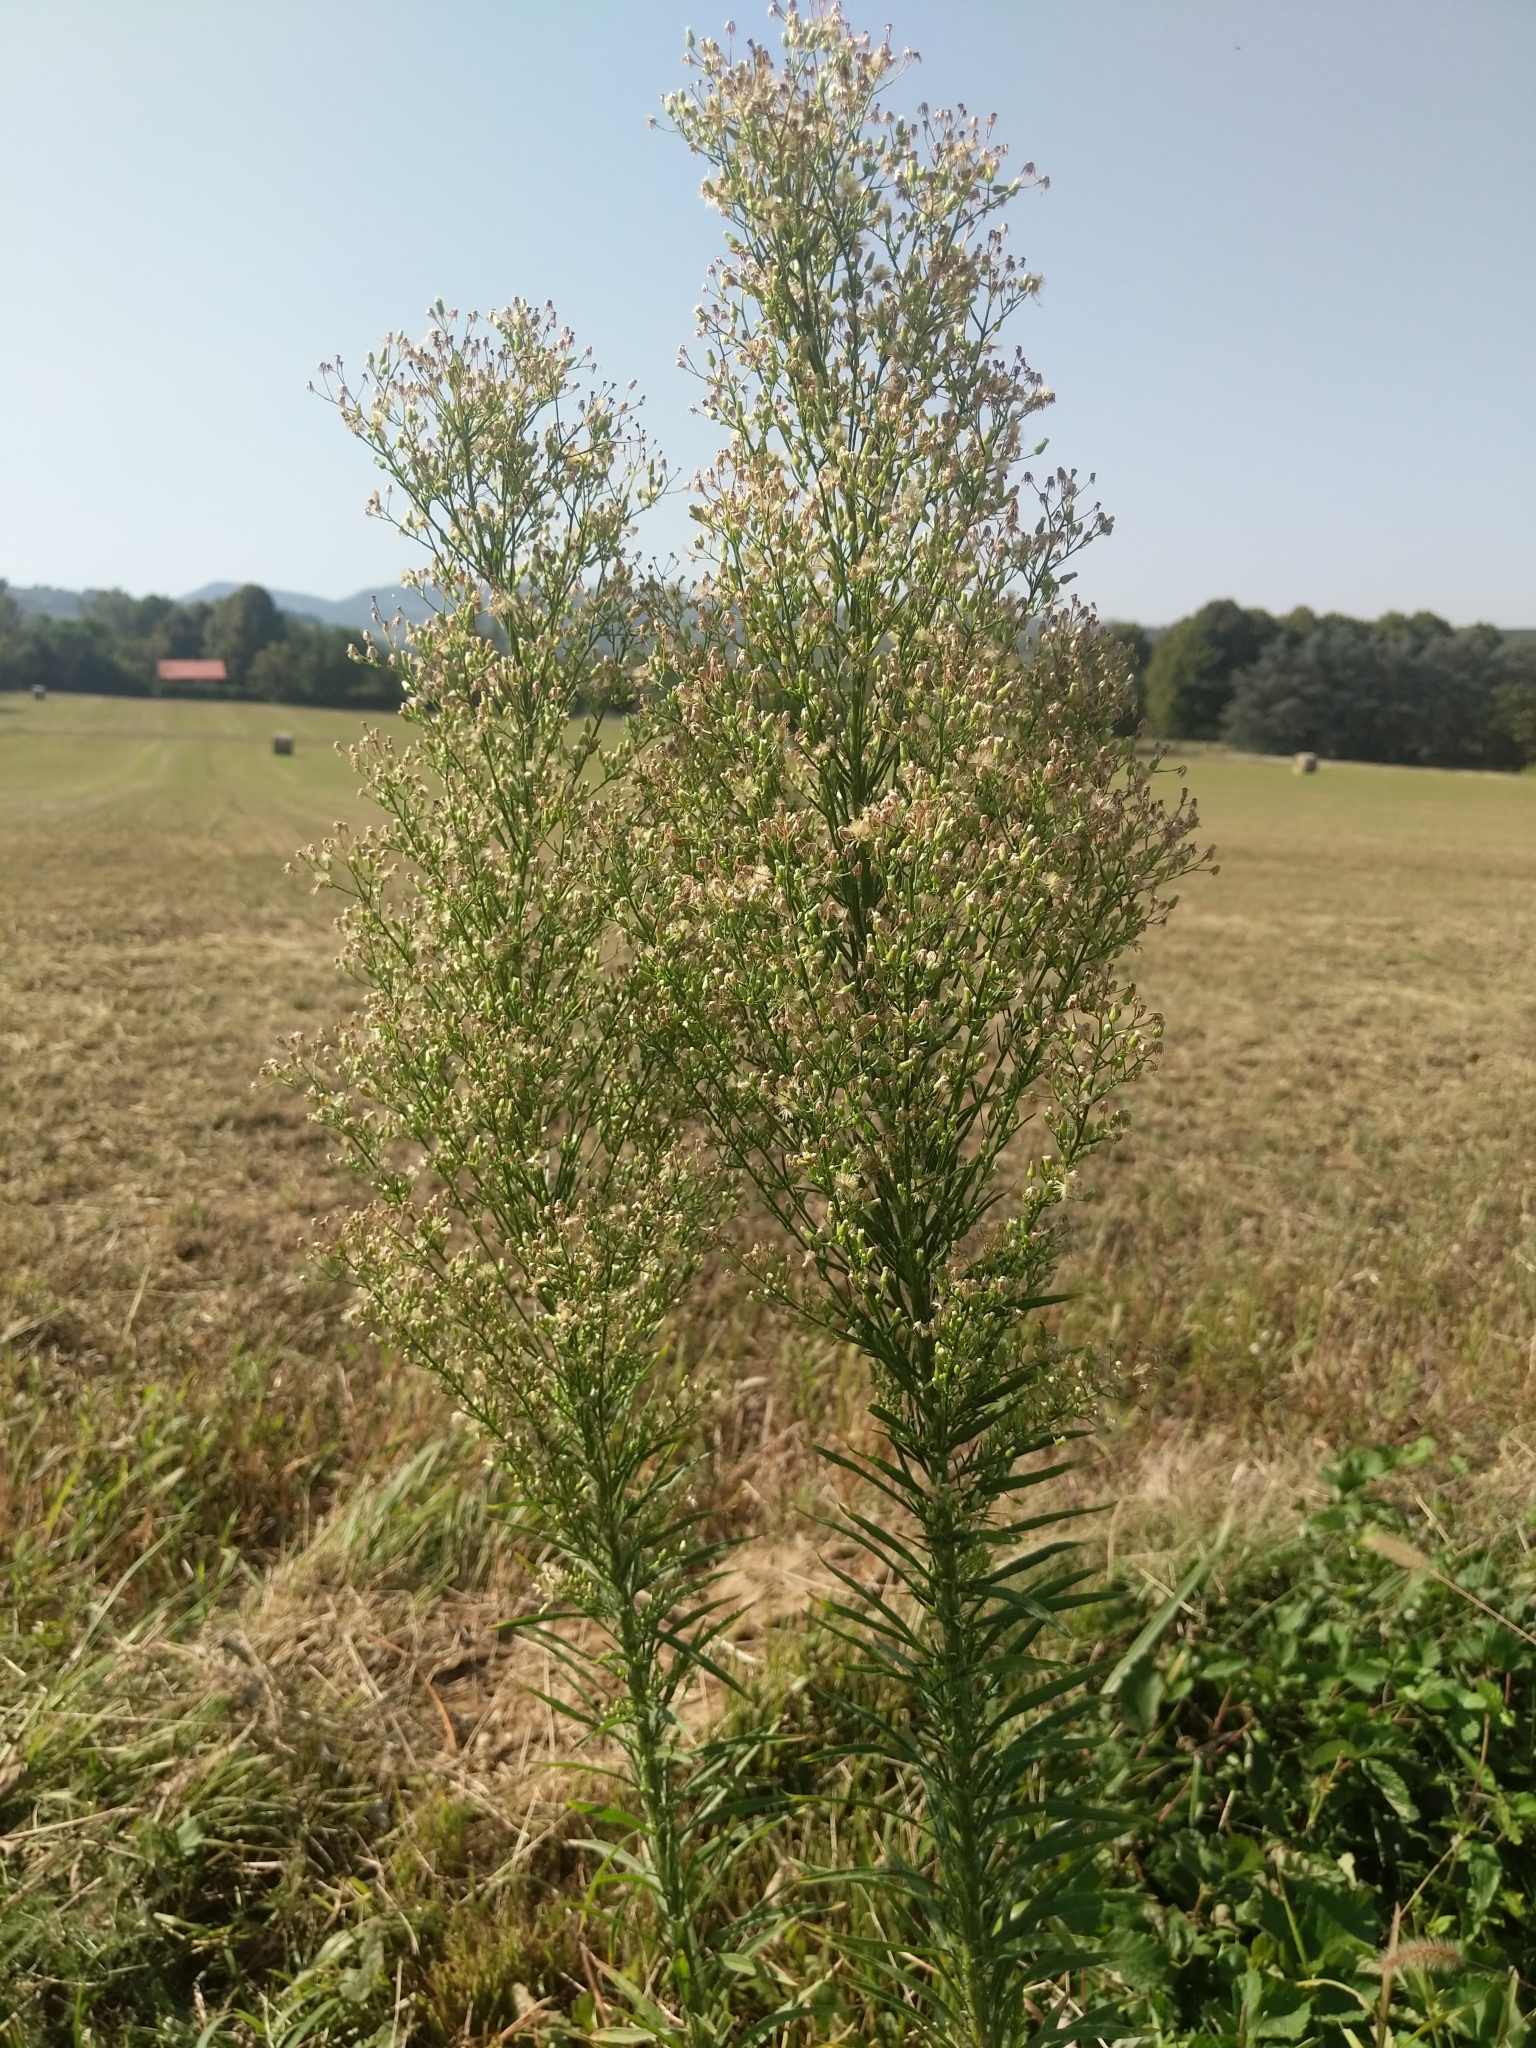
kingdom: Plantae
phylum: Tracheophyta
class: Magnoliopsida
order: Asterales
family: Asteraceae
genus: Erigeron
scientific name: Erigeron canadensis
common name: Canadian fleabane
